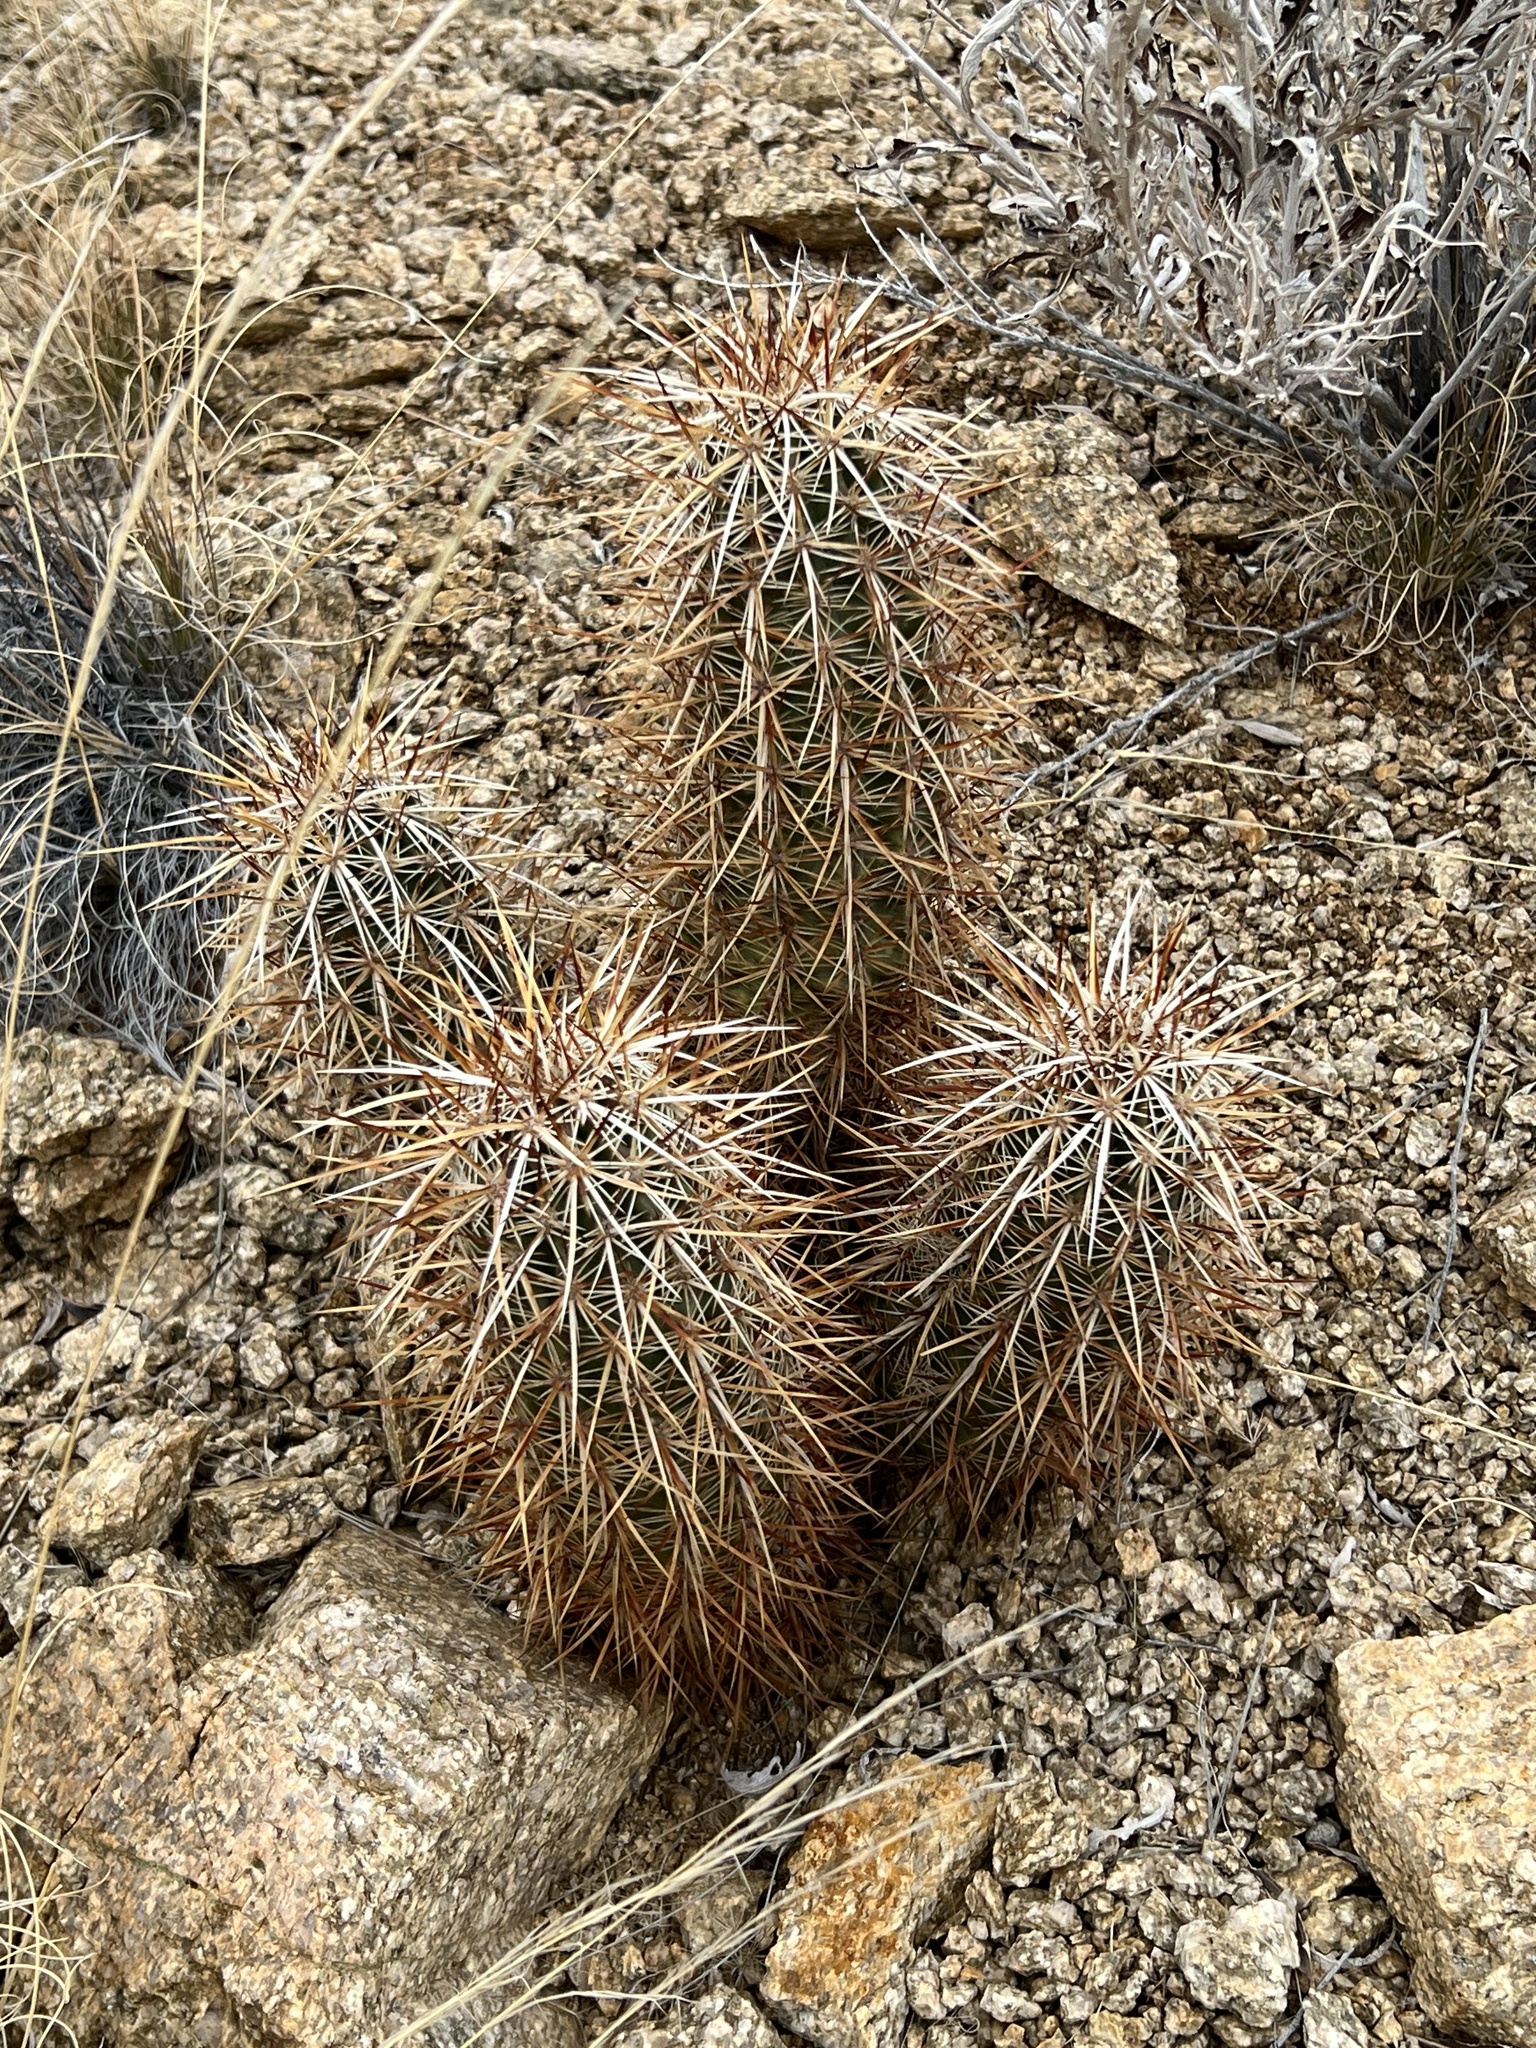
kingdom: Plantae
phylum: Tracheophyta
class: Magnoliopsida
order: Caryophyllales
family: Cactaceae
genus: Echinocereus
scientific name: Echinocereus engelmannii
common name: Engelmann's hedgehog cactus
